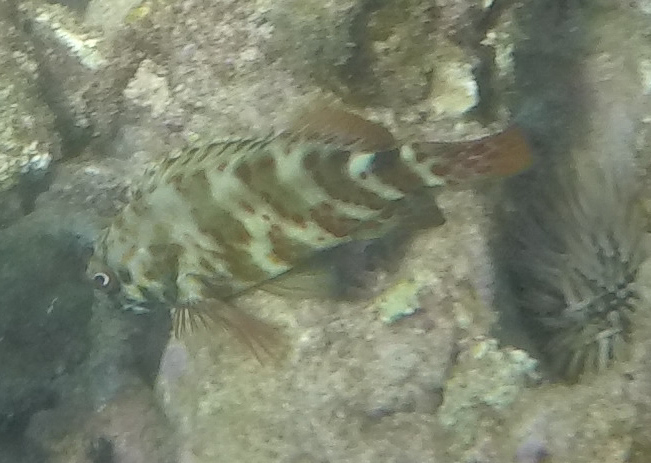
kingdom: Animalia
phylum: Chordata
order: Perciformes
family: Cirrhitidae
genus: Cirrhitus
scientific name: Cirrhitus pinnulatus
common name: Stocky hawkfish
